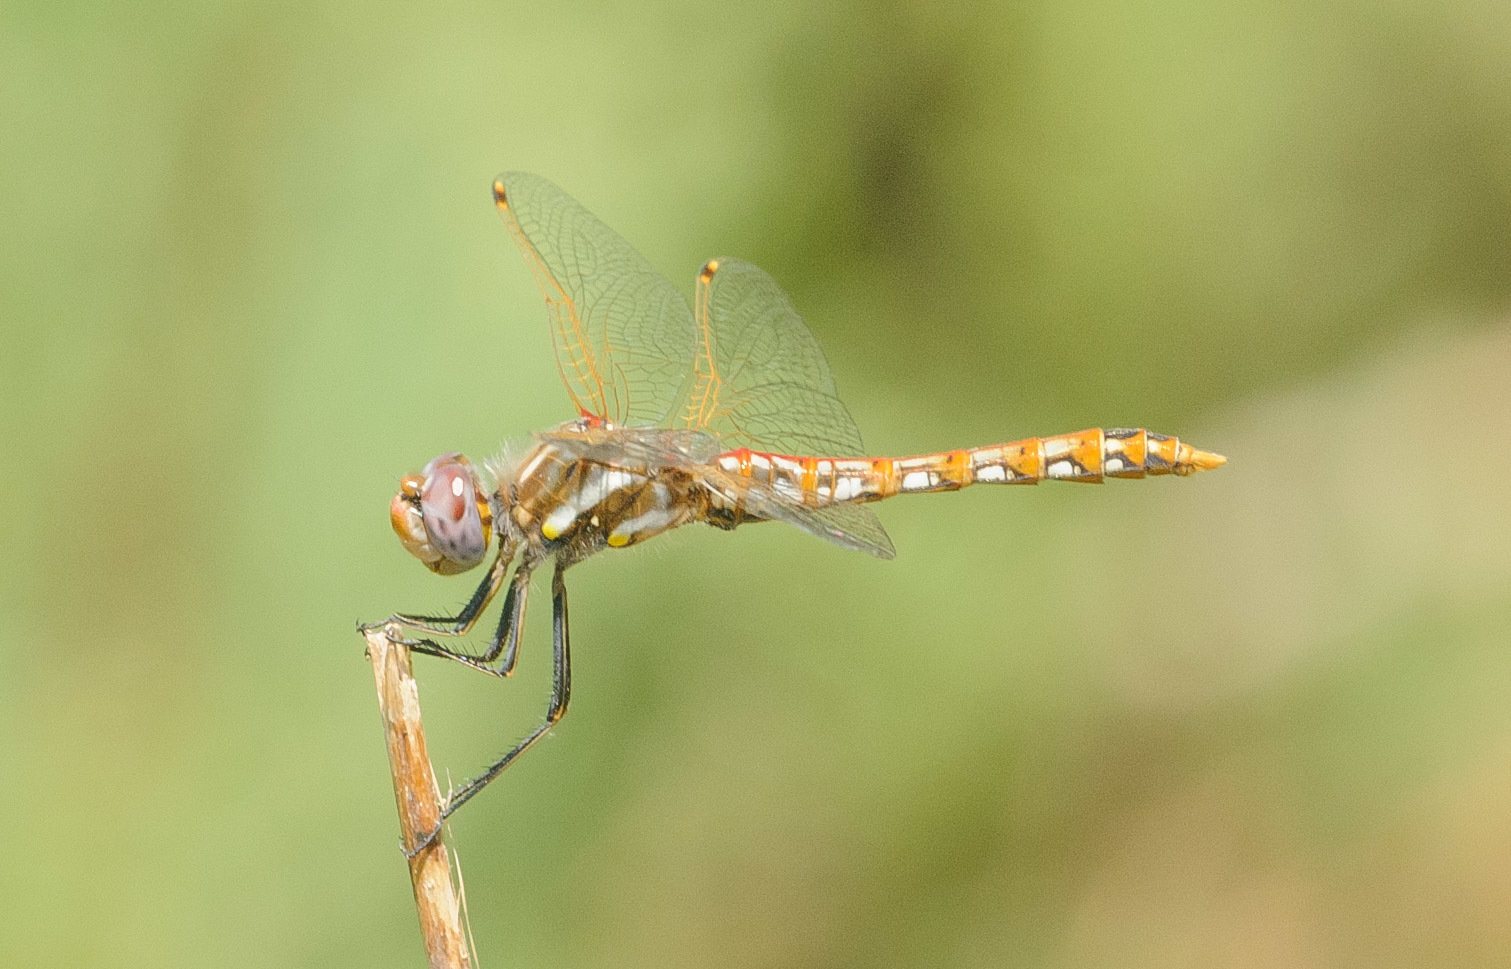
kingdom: Animalia
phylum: Arthropoda
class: Insecta
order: Odonata
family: Libellulidae
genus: Sympetrum
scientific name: Sympetrum corruptum
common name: Variegated meadowhawk
